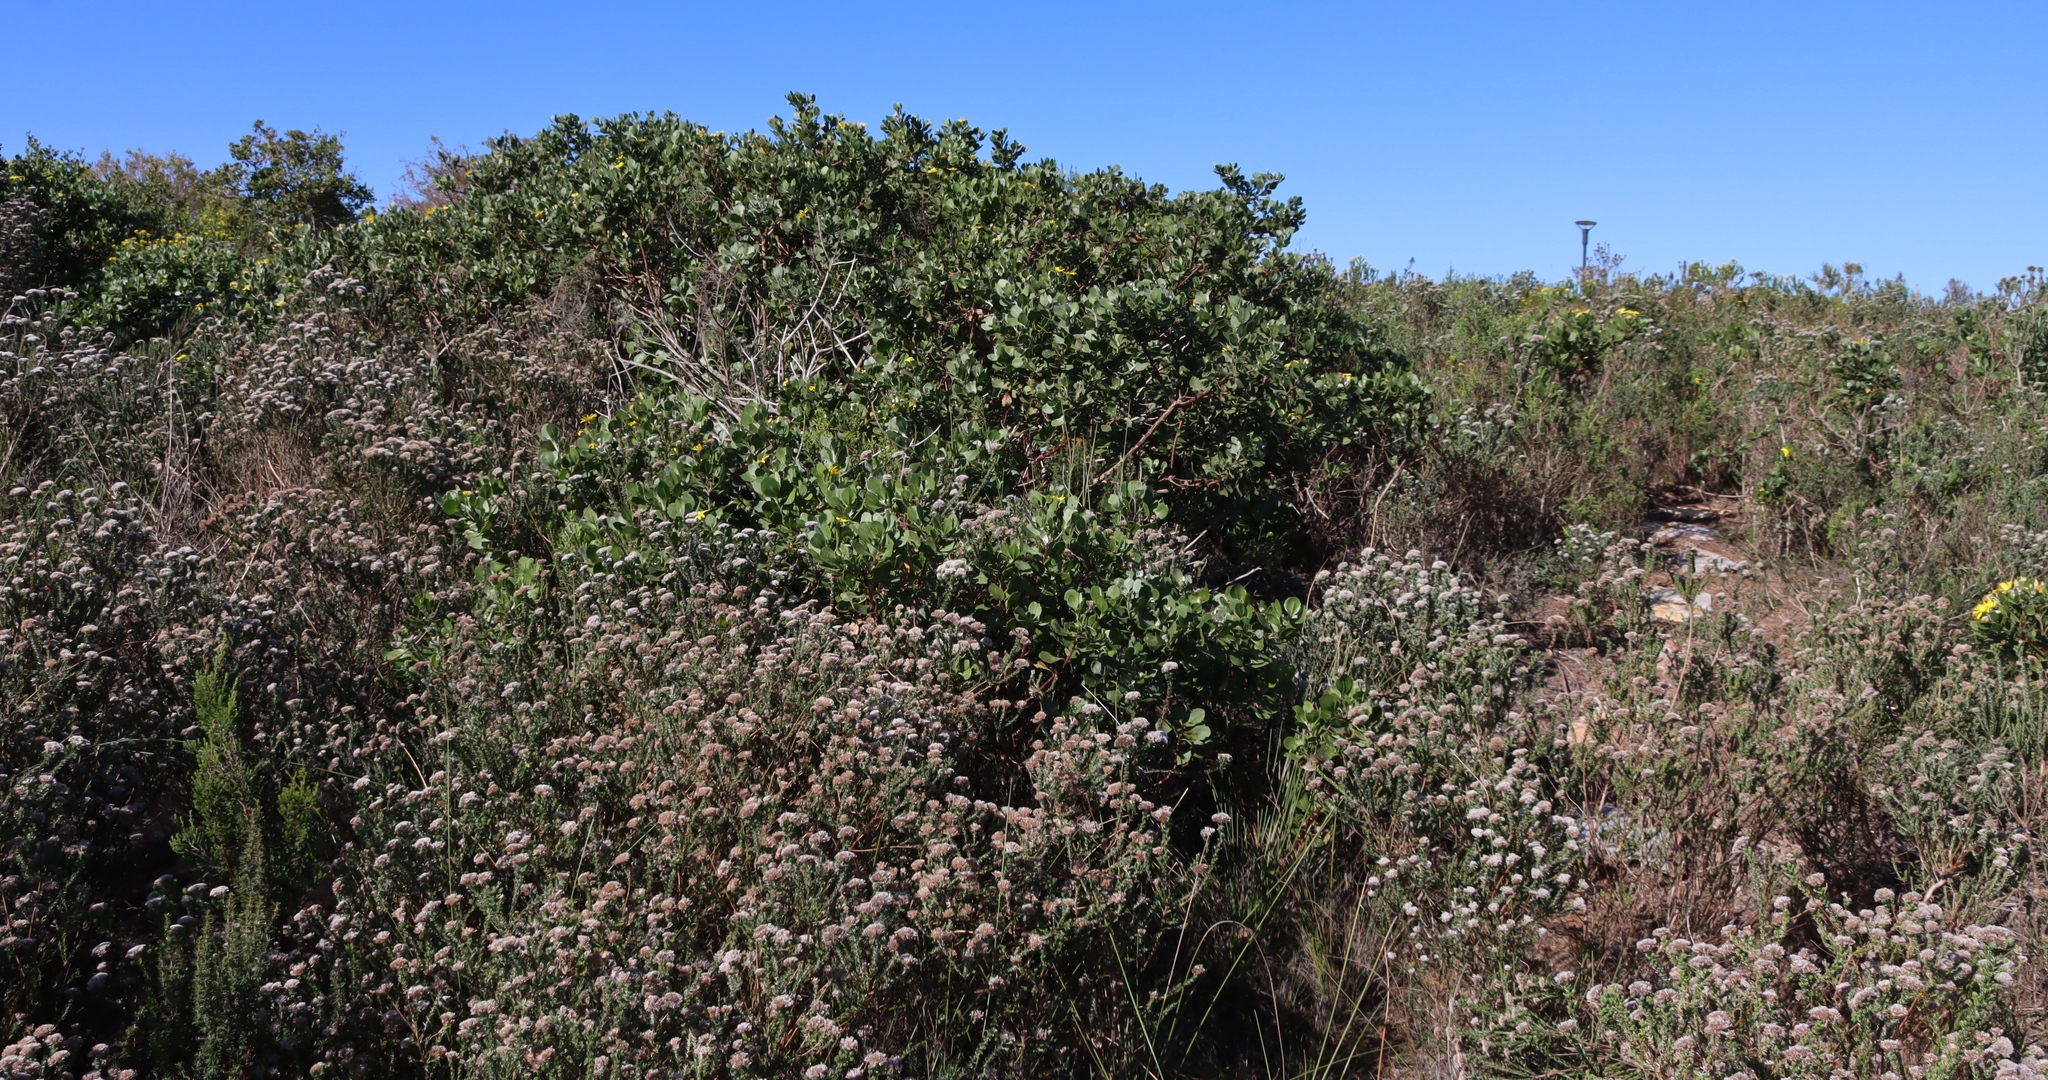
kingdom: Plantae
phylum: Tracheophyta
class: Magnoliopsida
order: Asterales
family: Asteraceae
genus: Metalasia
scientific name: Metalasia pungens
